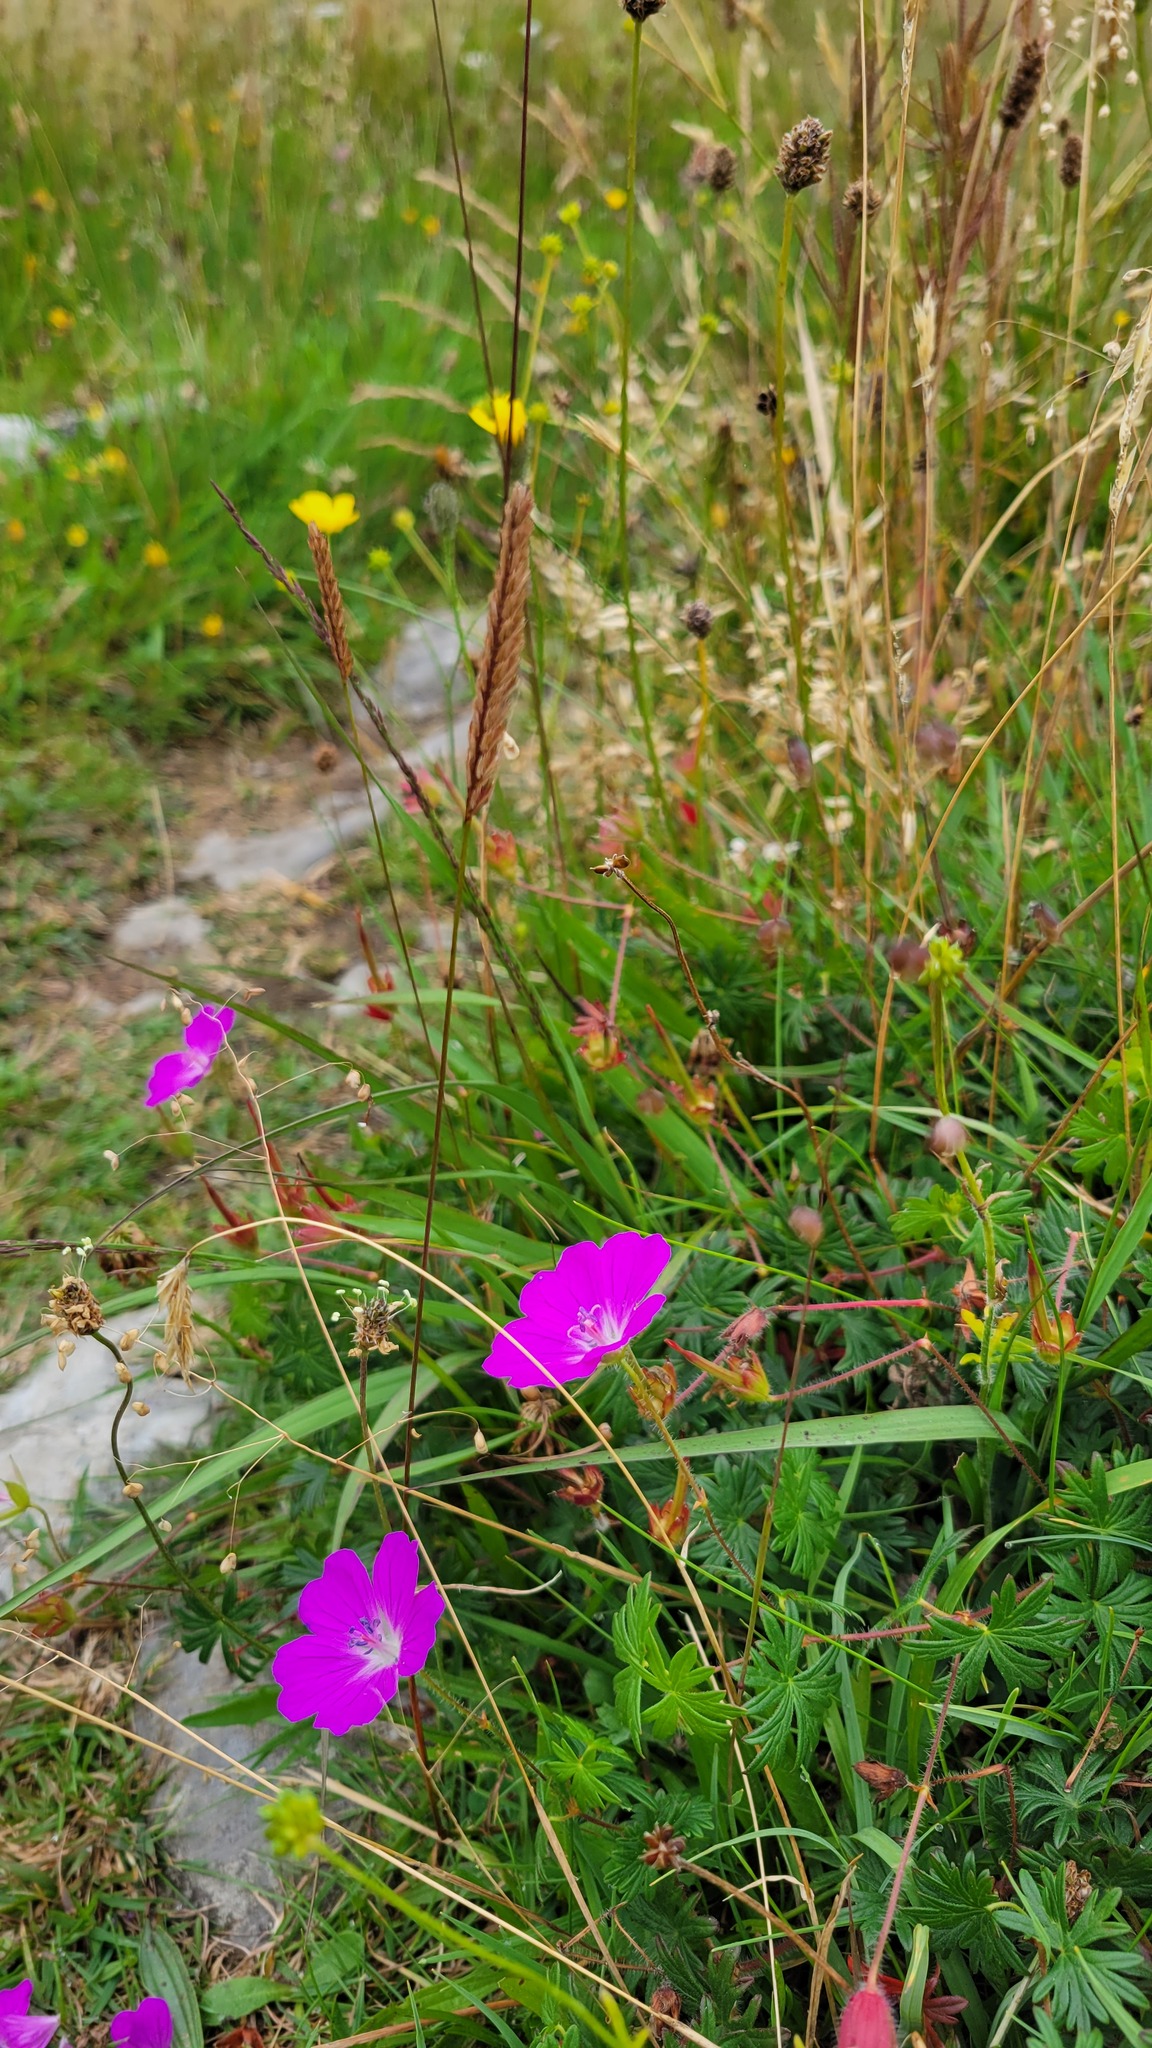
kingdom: Plantae
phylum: Tracheophyta
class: Magnoliopsida
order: Geraniales
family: Geraniaceae
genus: Geranium
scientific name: Geranium sanguineum
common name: Bloody crane's-bill
